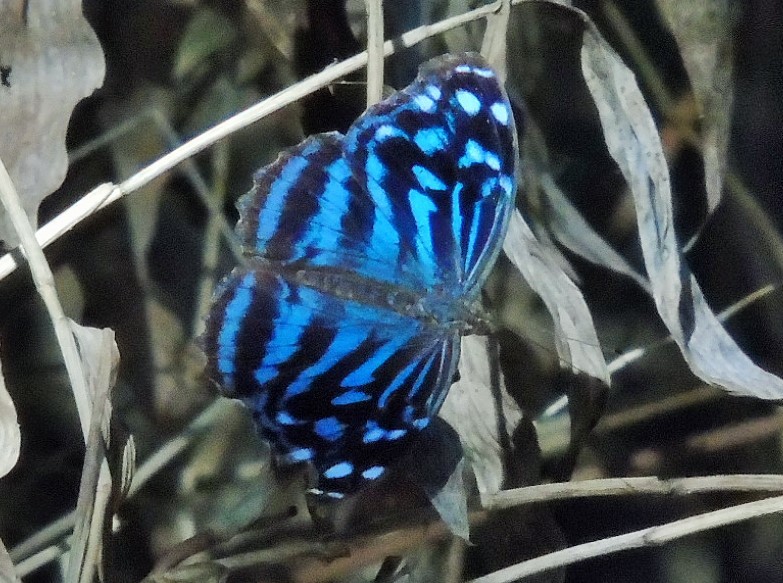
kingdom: Animalia
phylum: Arthropoda
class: Insecta
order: Lepidoptera
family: Nymphalidae
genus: Myscelia
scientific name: Myscelia ethusa
